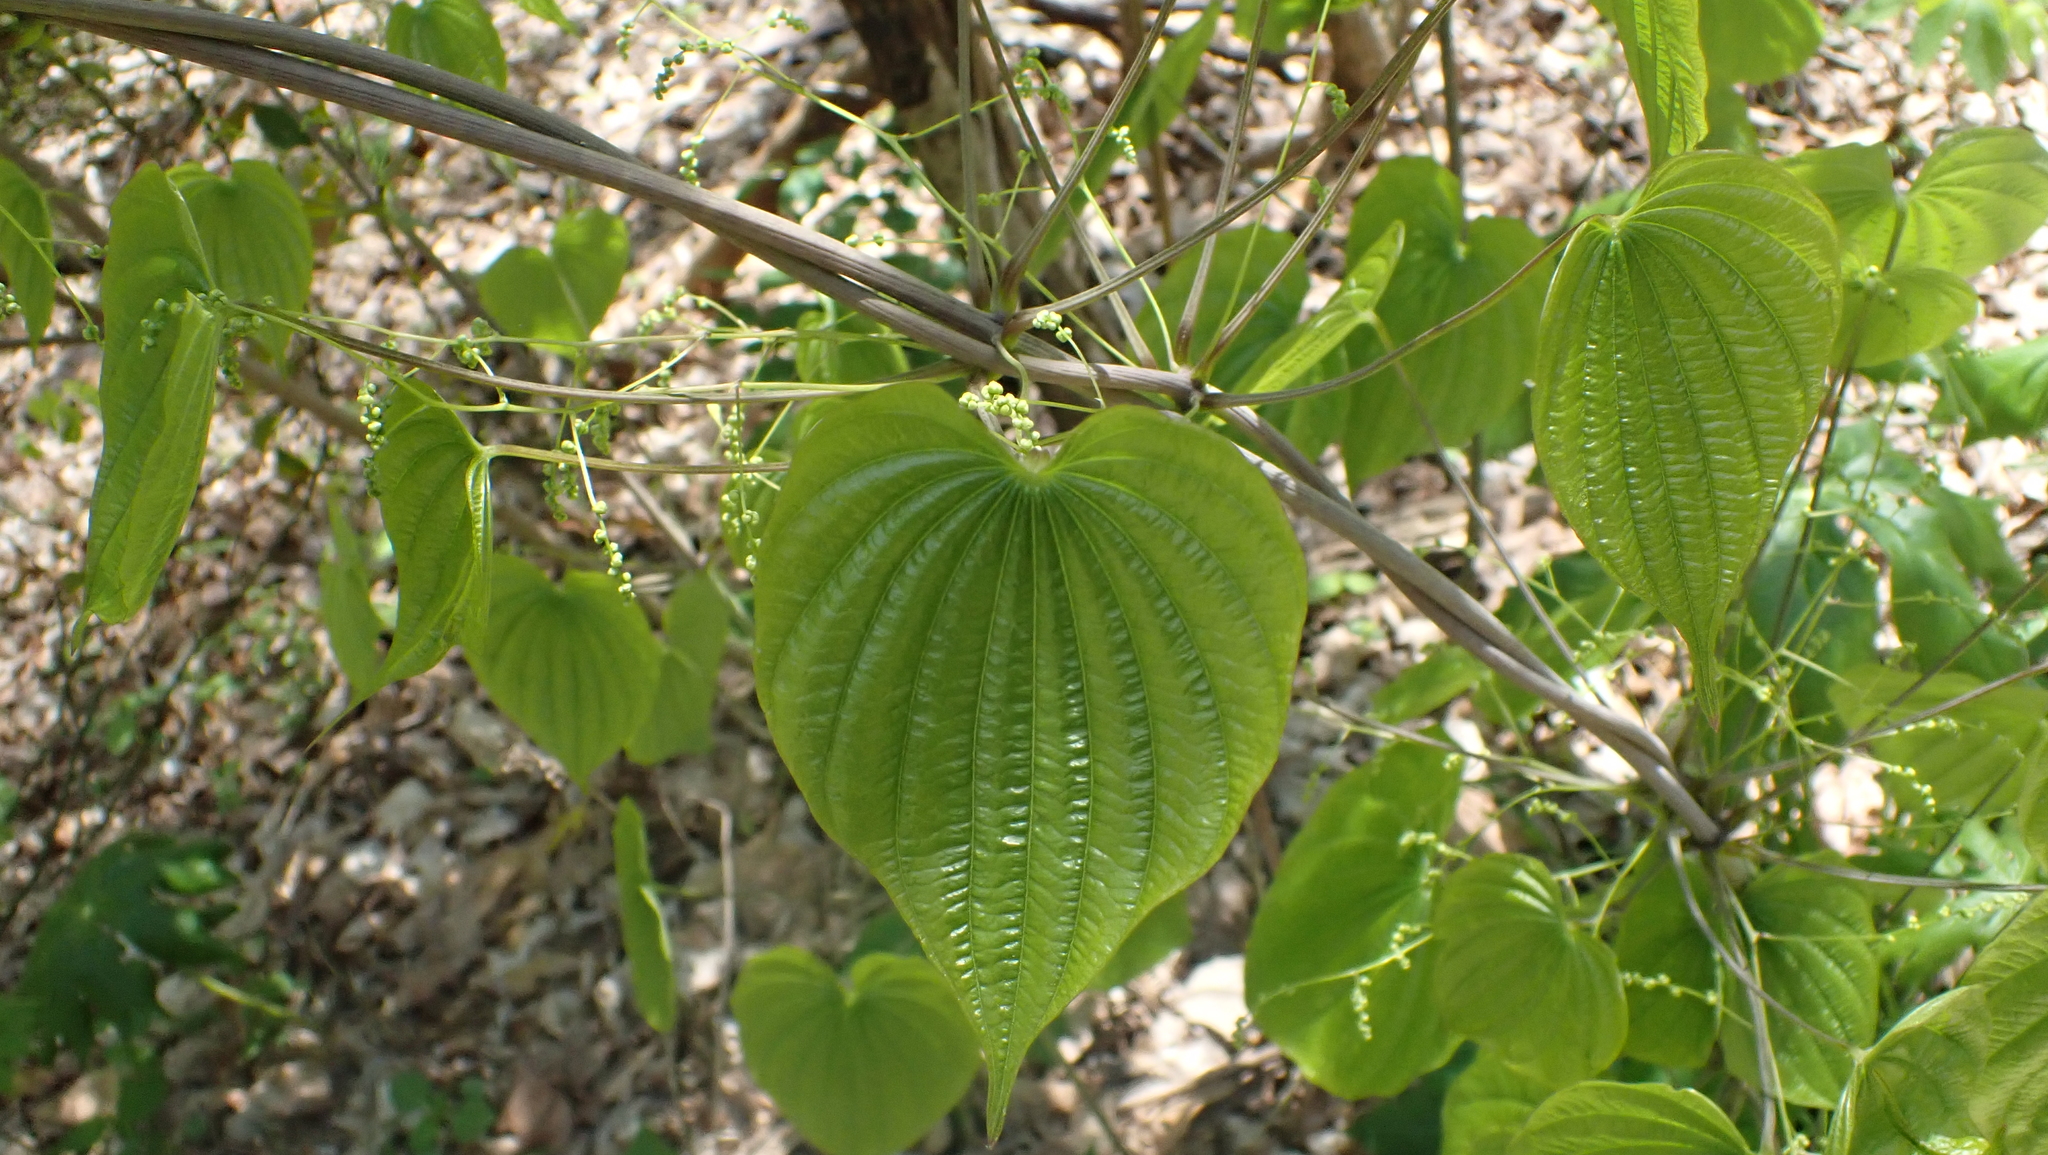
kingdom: Plantae
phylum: Tracheophyta
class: Liliopsida
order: Dioscoreales
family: Dioscoreaceae
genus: Dioscorea
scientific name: Dioscorea villosa
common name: Wild yam
